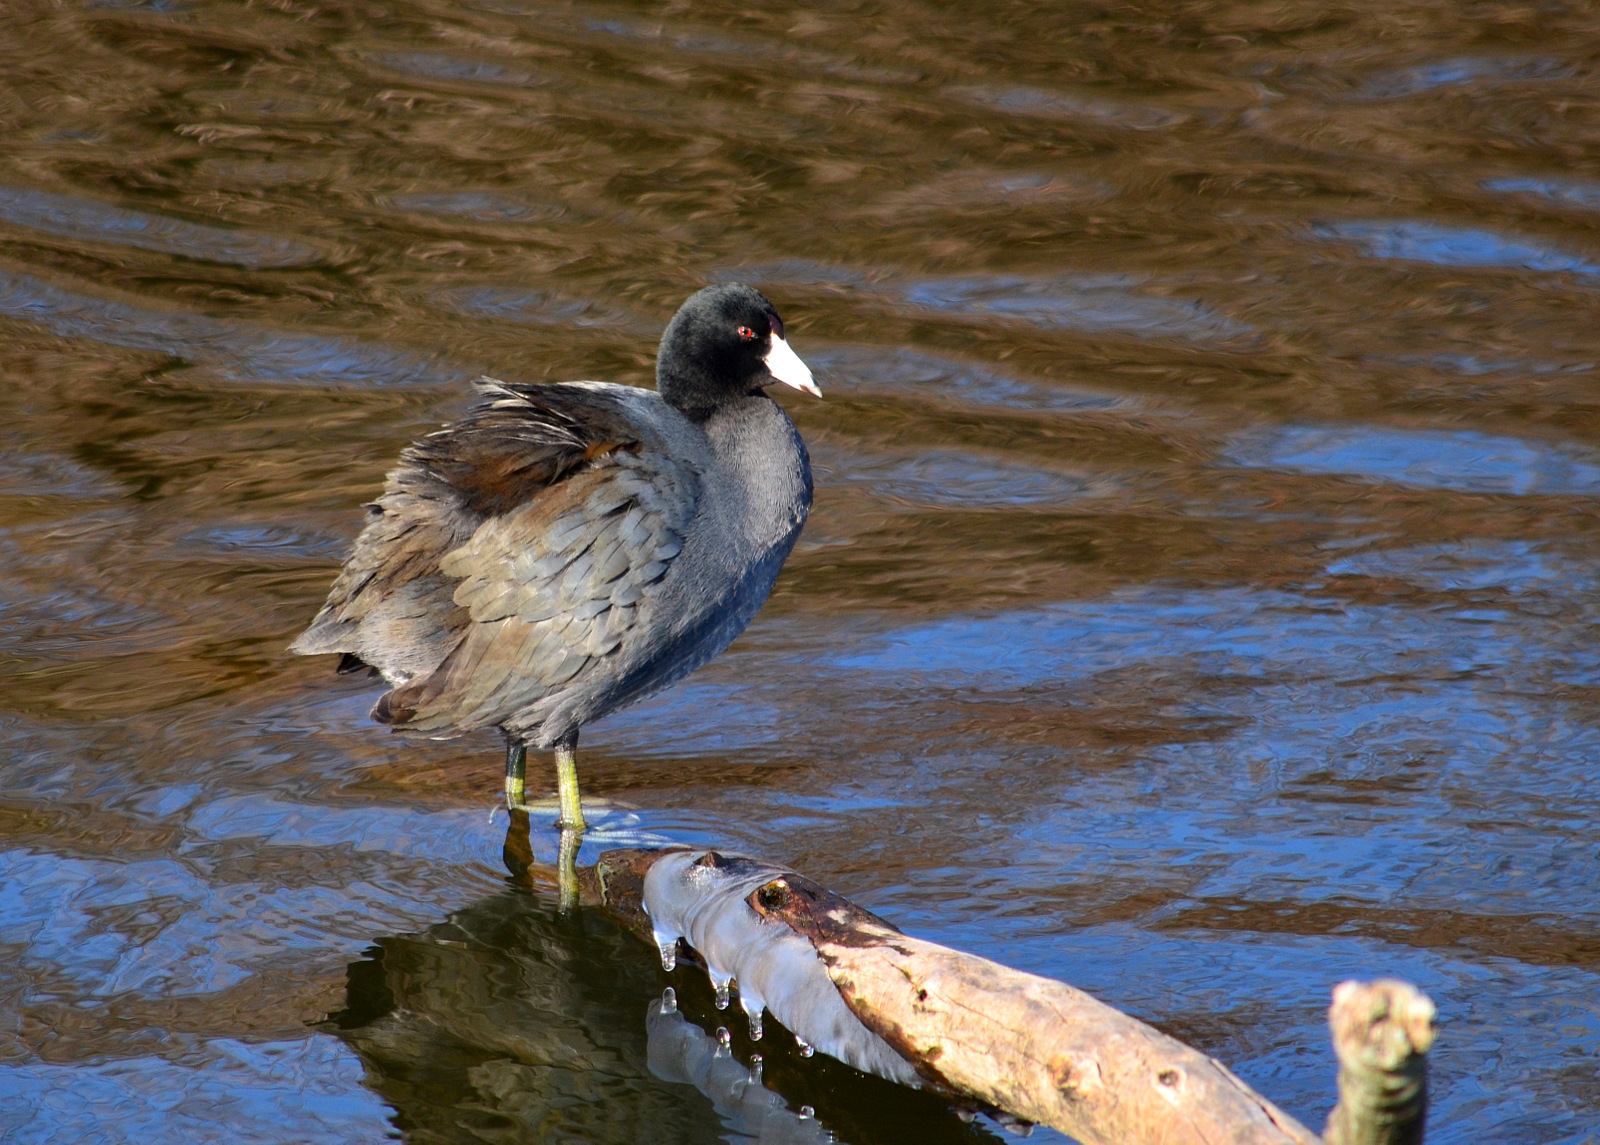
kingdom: Animalia
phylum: Chordata
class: Aves
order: Gruiformes
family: Rallidae
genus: Fulica
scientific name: Fulica americana
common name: American coot
